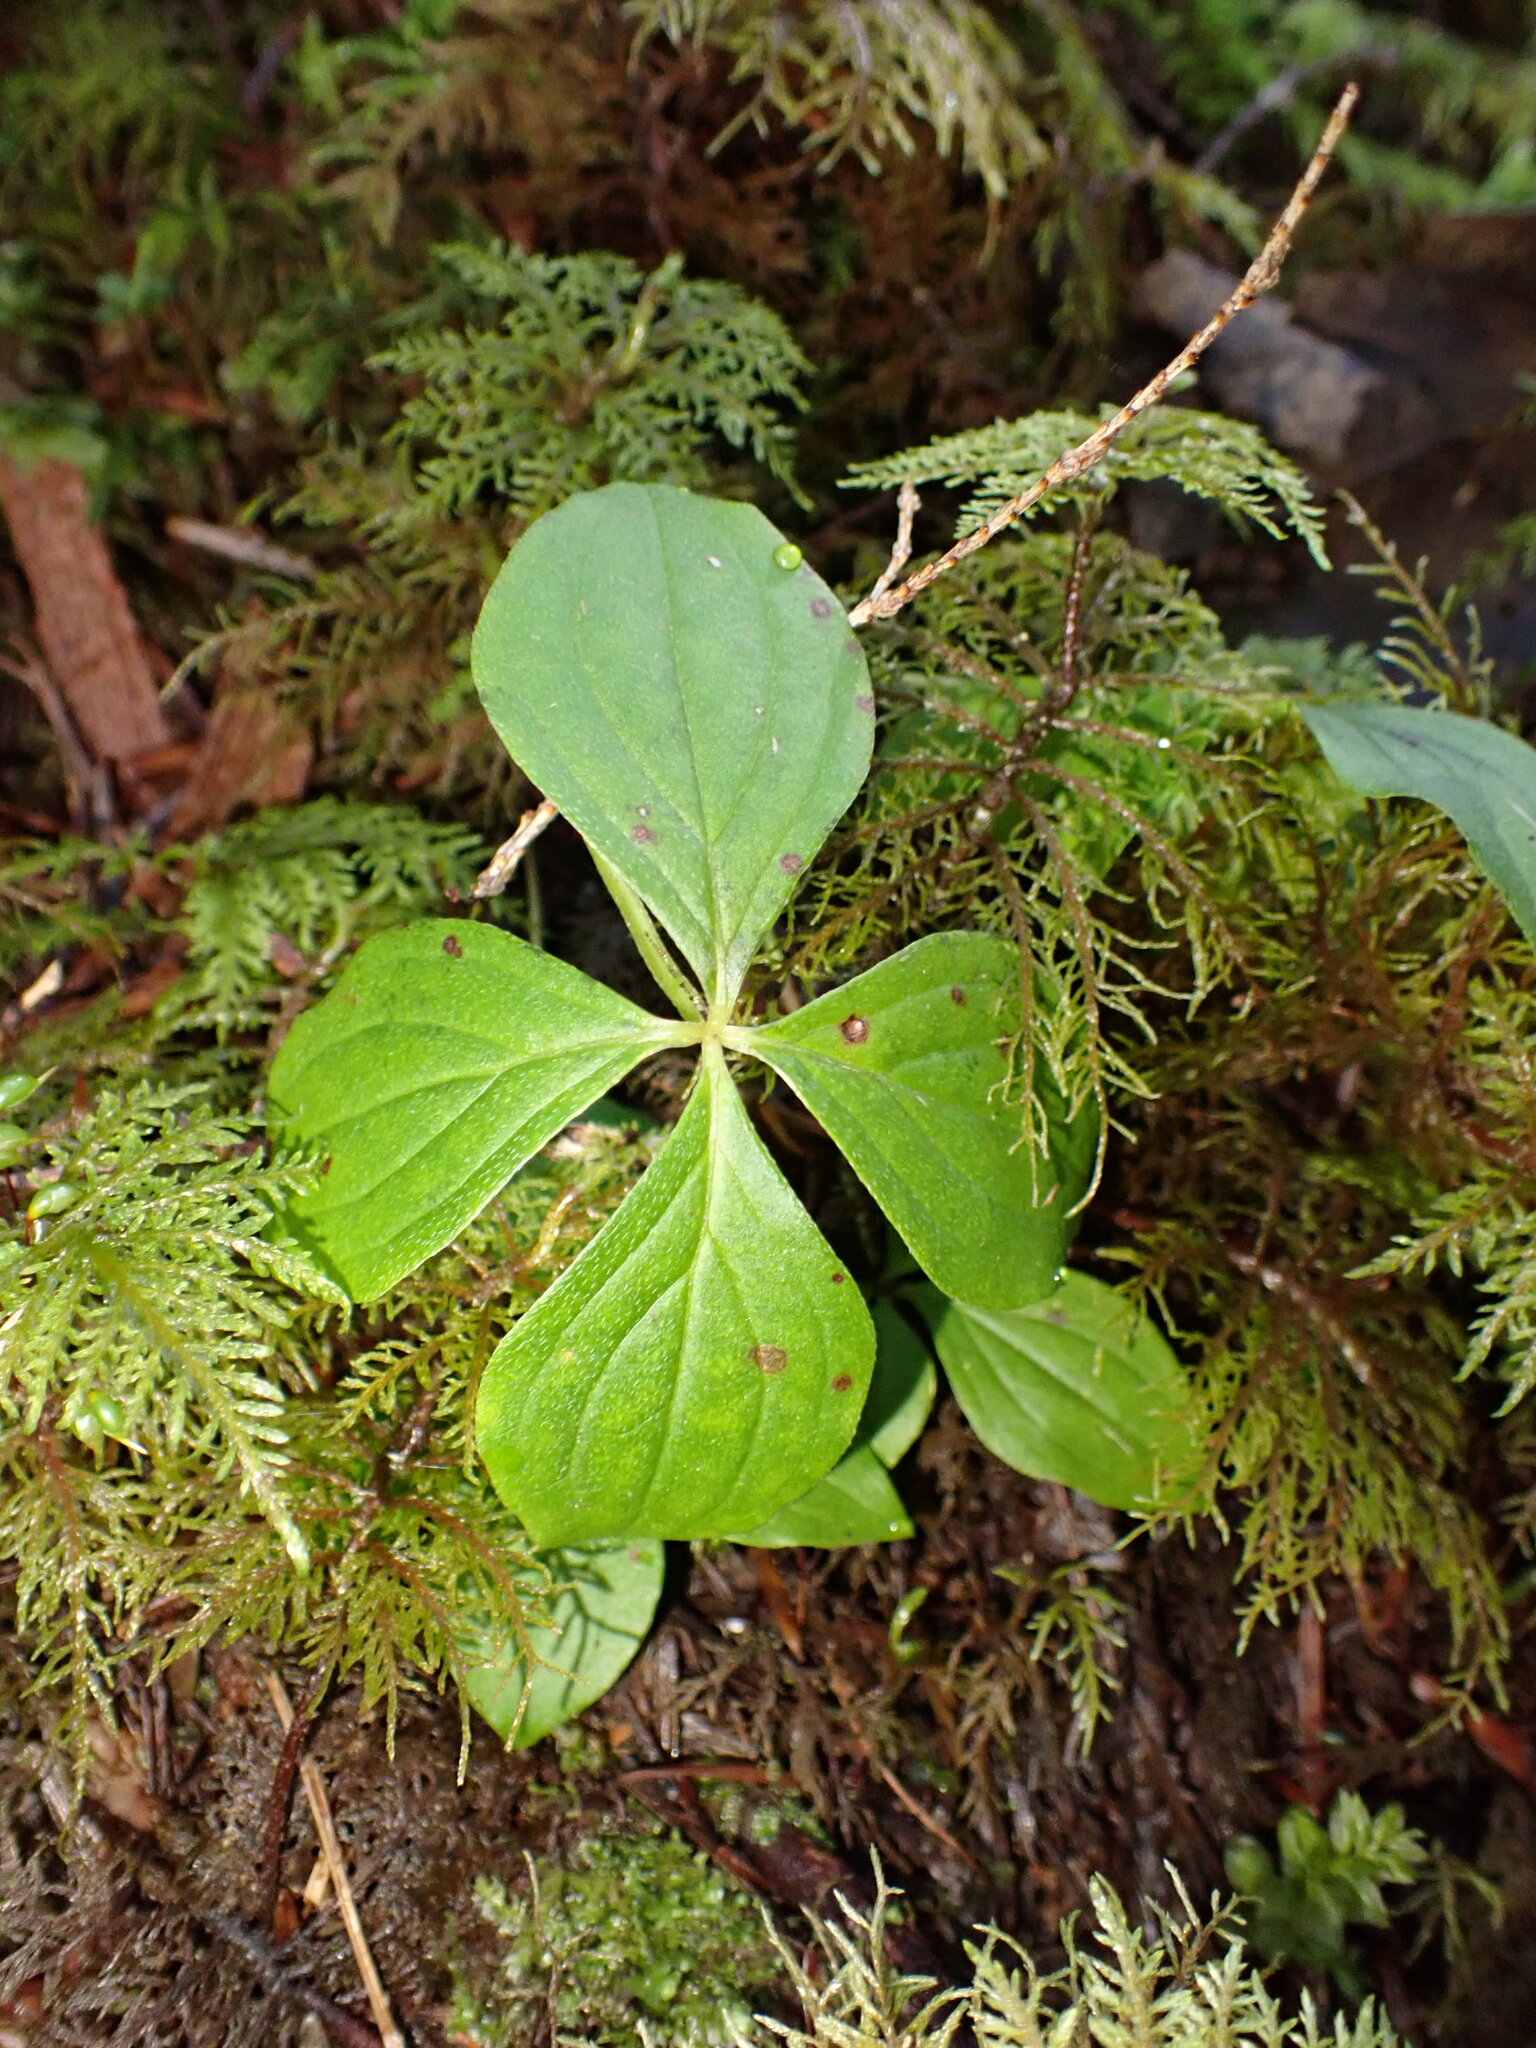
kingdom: Plantae
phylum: Tracheophyta
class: Magnoliopsida
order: Cornales
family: Cornaceae
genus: Cornus
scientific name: Cornus unalaschkensis
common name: Alaska bunchberry
